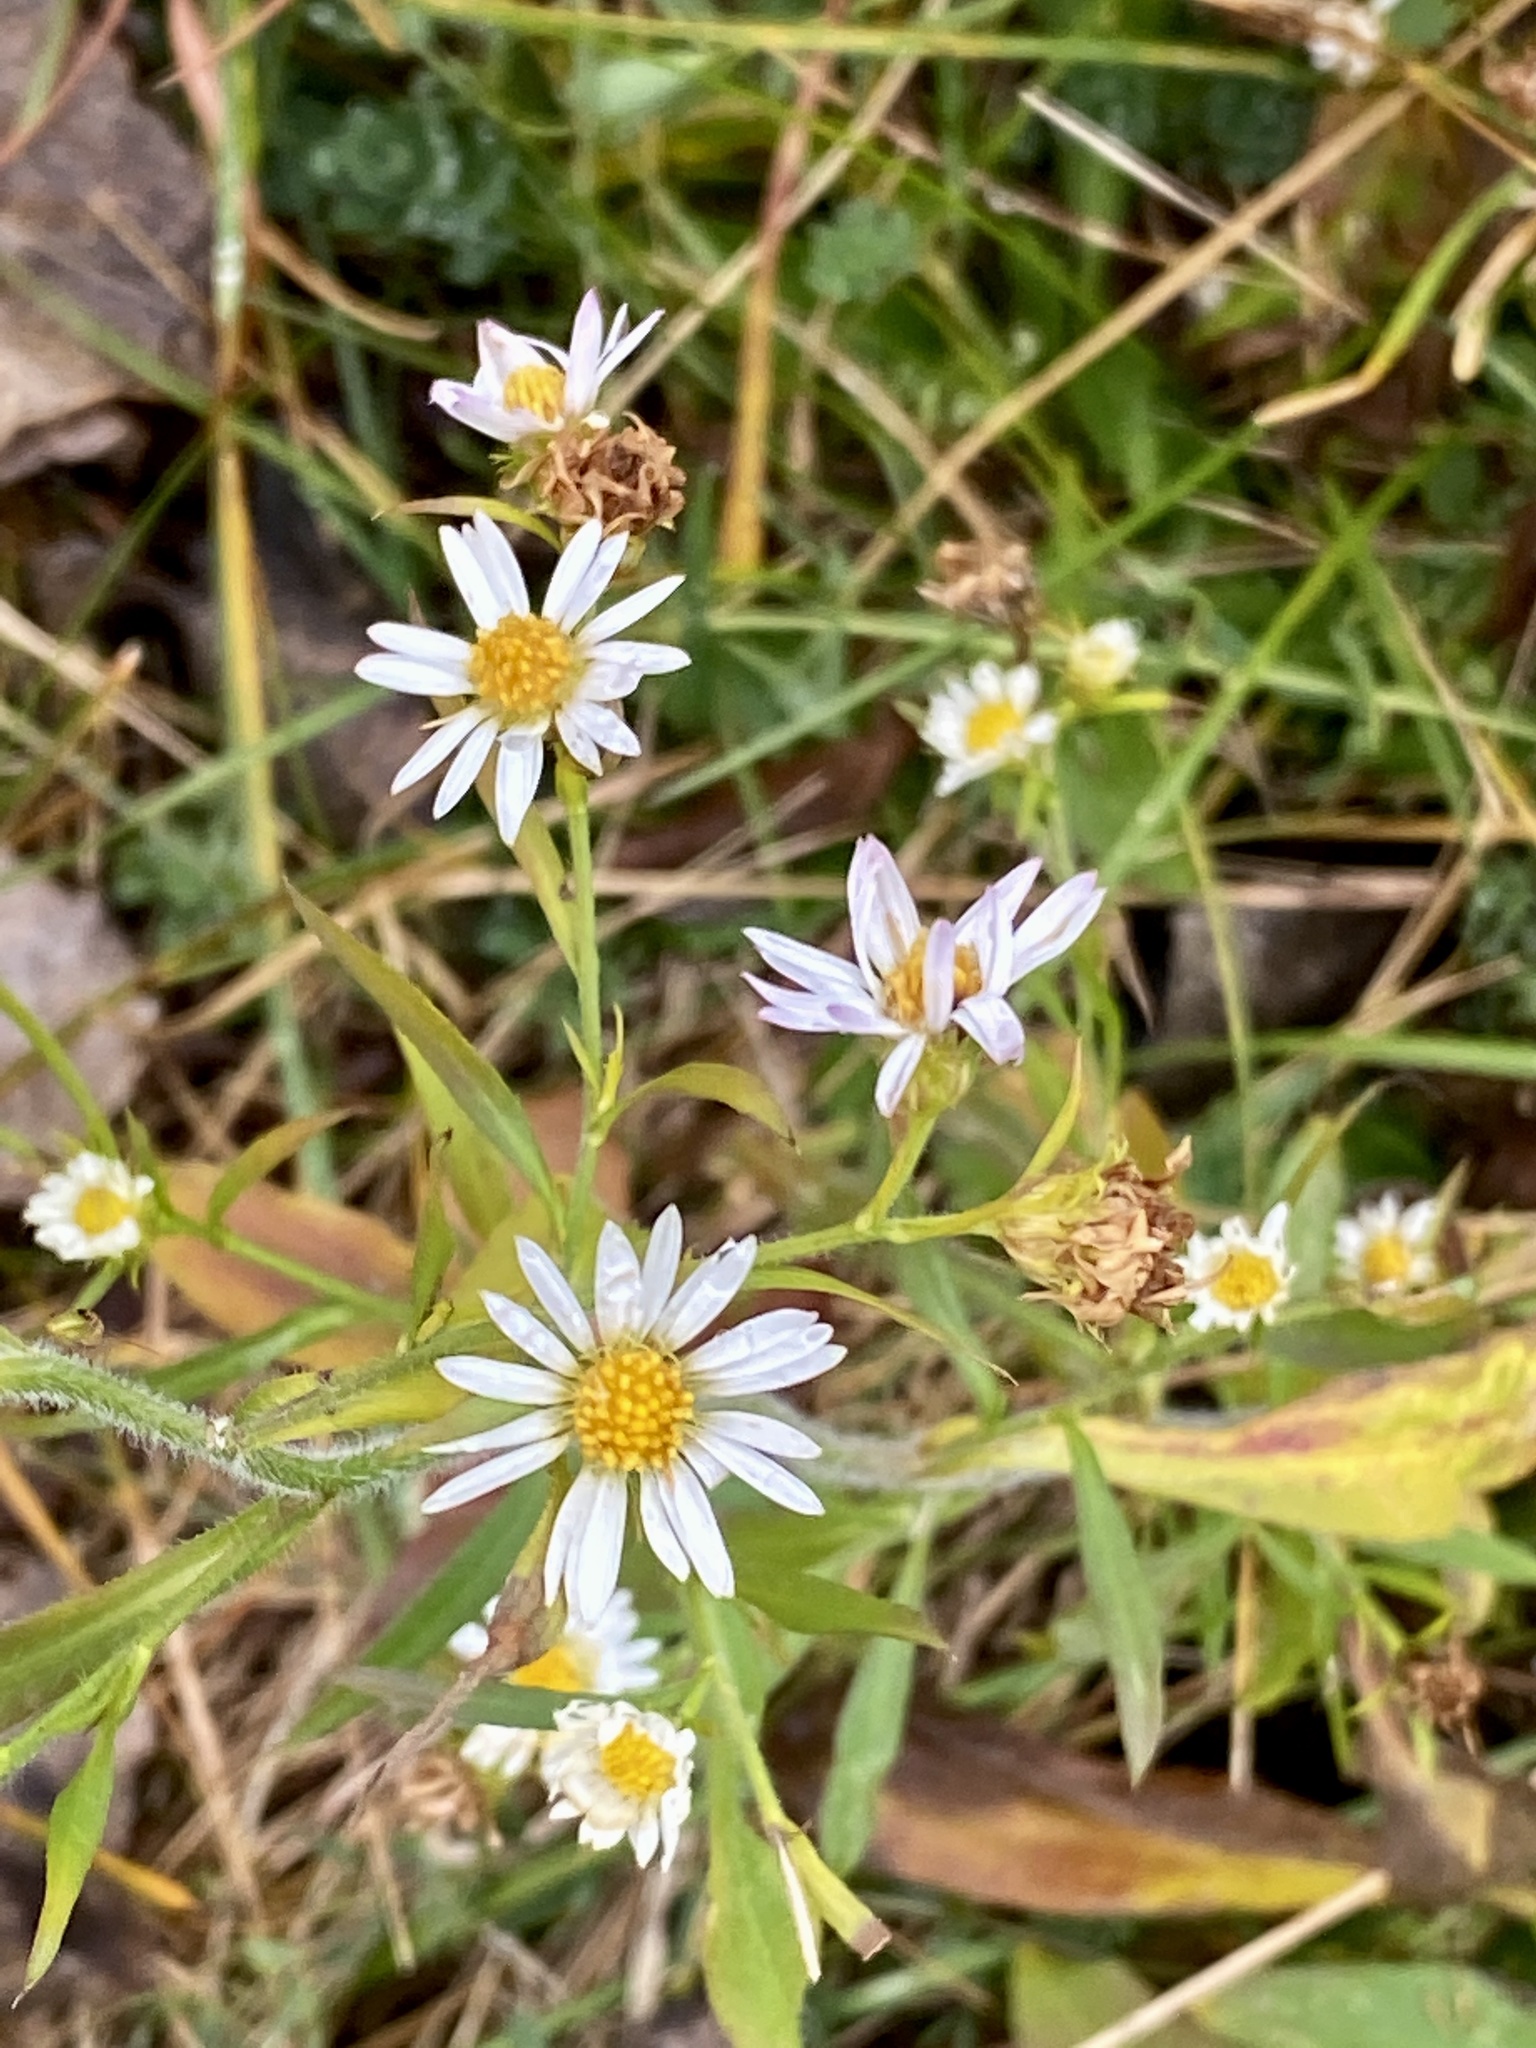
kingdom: Plantae
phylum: Tracheophyta
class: Magnoliopsida
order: Asterales
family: Asteraceae
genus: Symphyotrichum
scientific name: Symphyotrichum pilosum
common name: Awl aster
